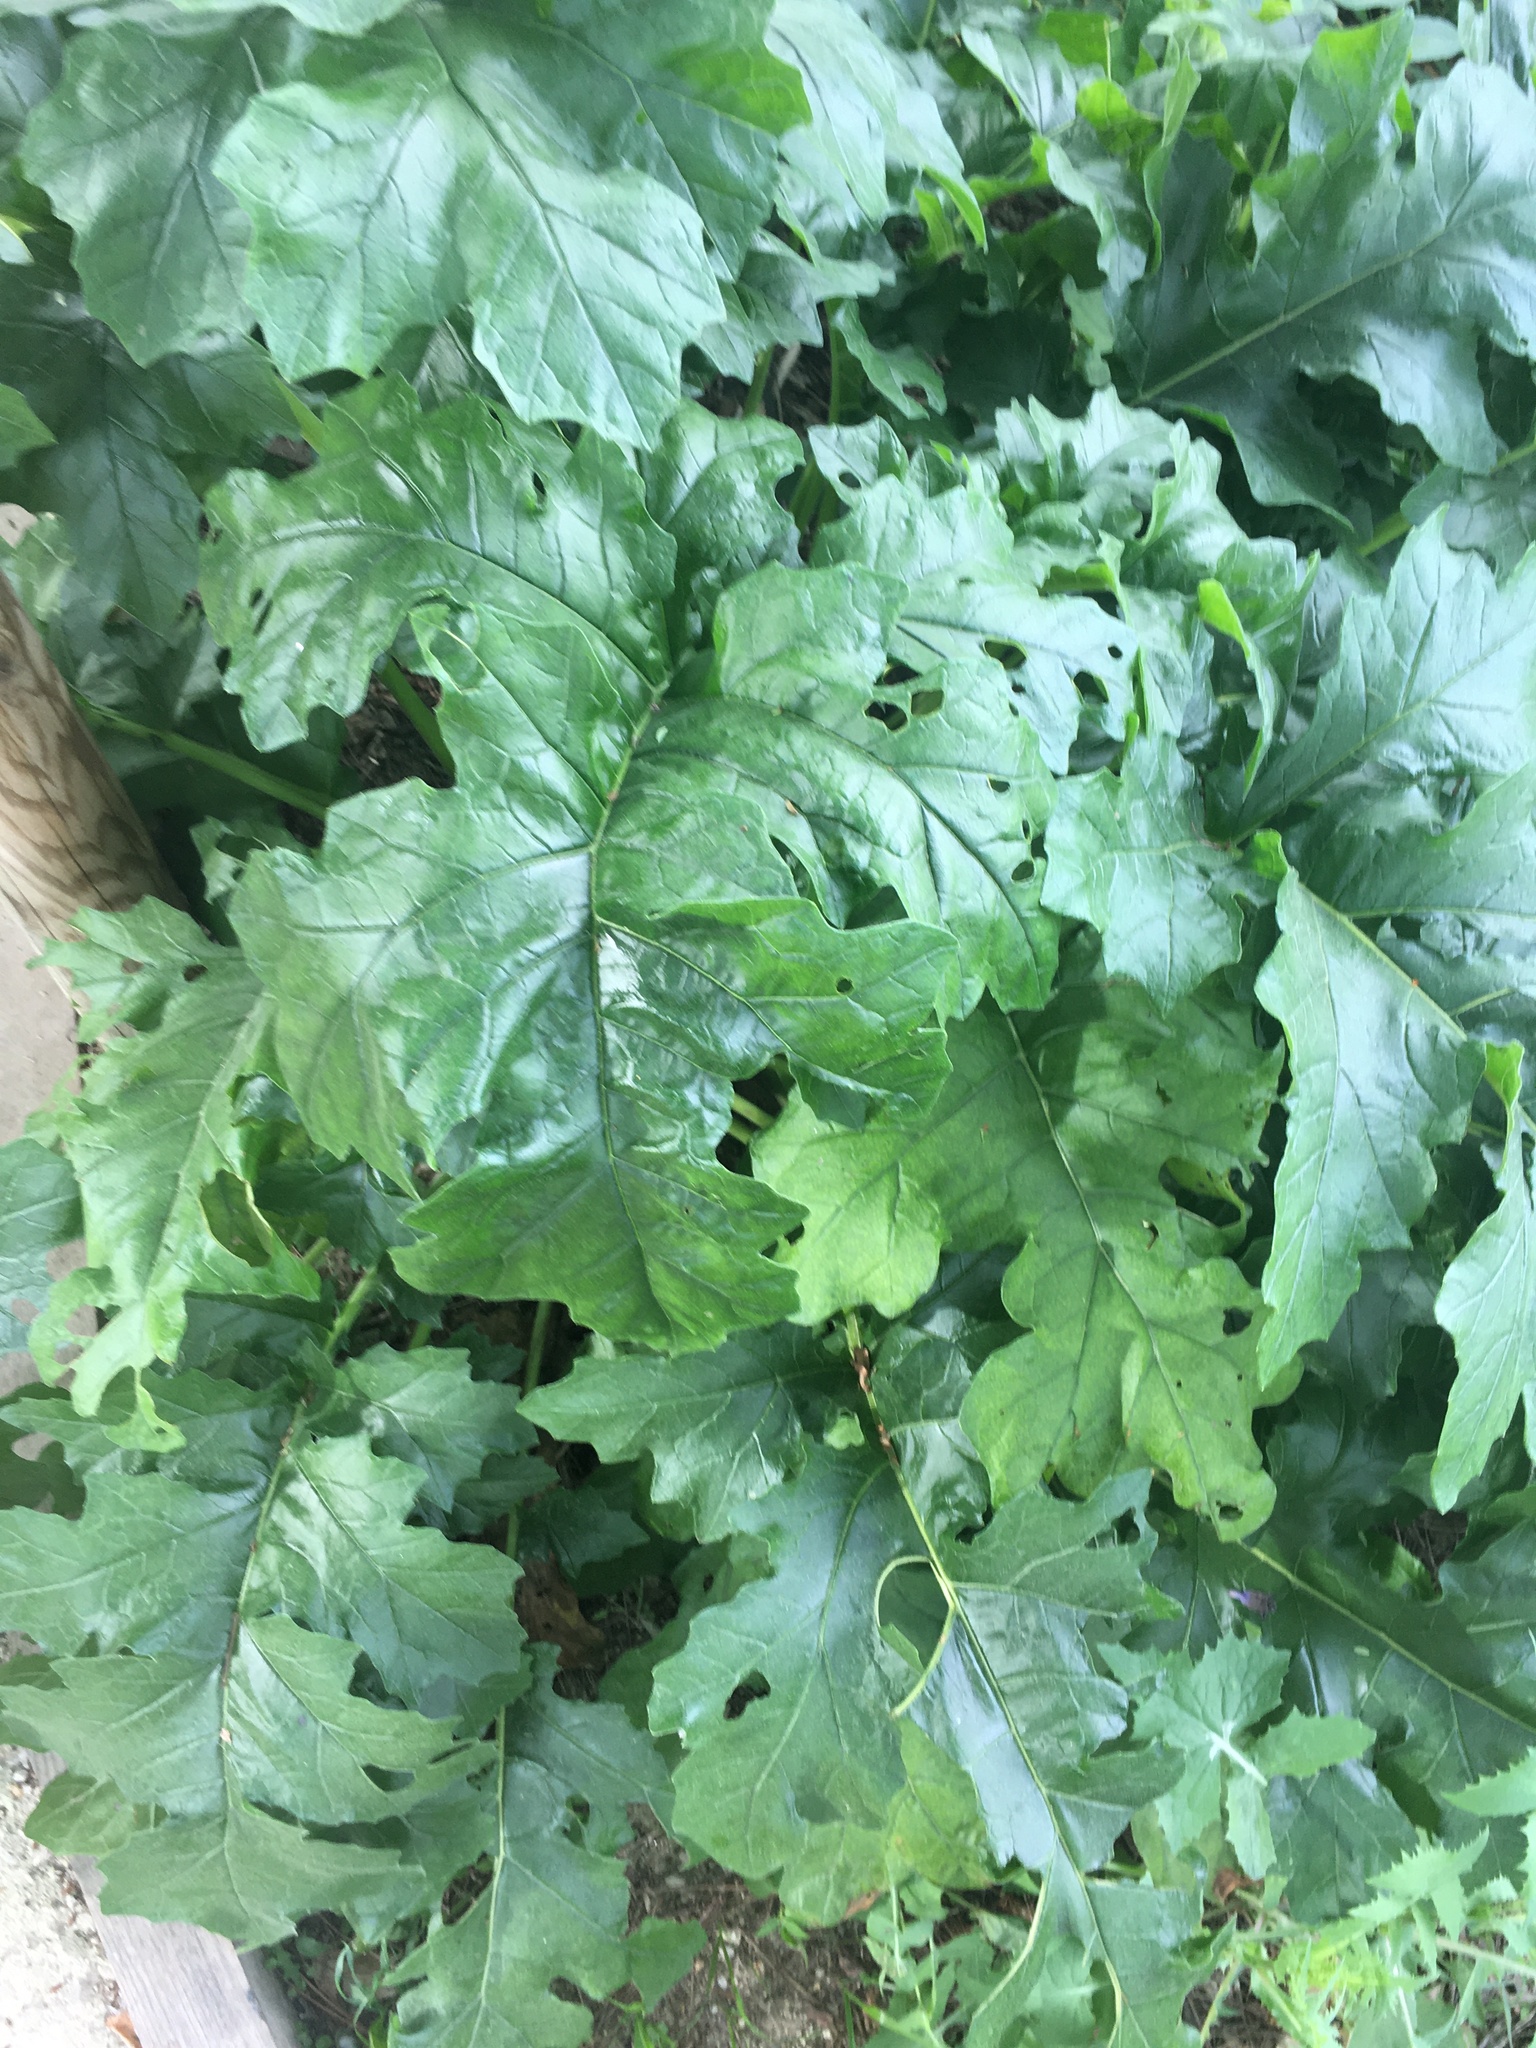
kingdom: Plantae
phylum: Tracheophyta
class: Magnoliopsida
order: Lamiales
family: Acanthaceae
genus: Acanthus
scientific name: Acanthus mollis
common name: Bear's-breech
